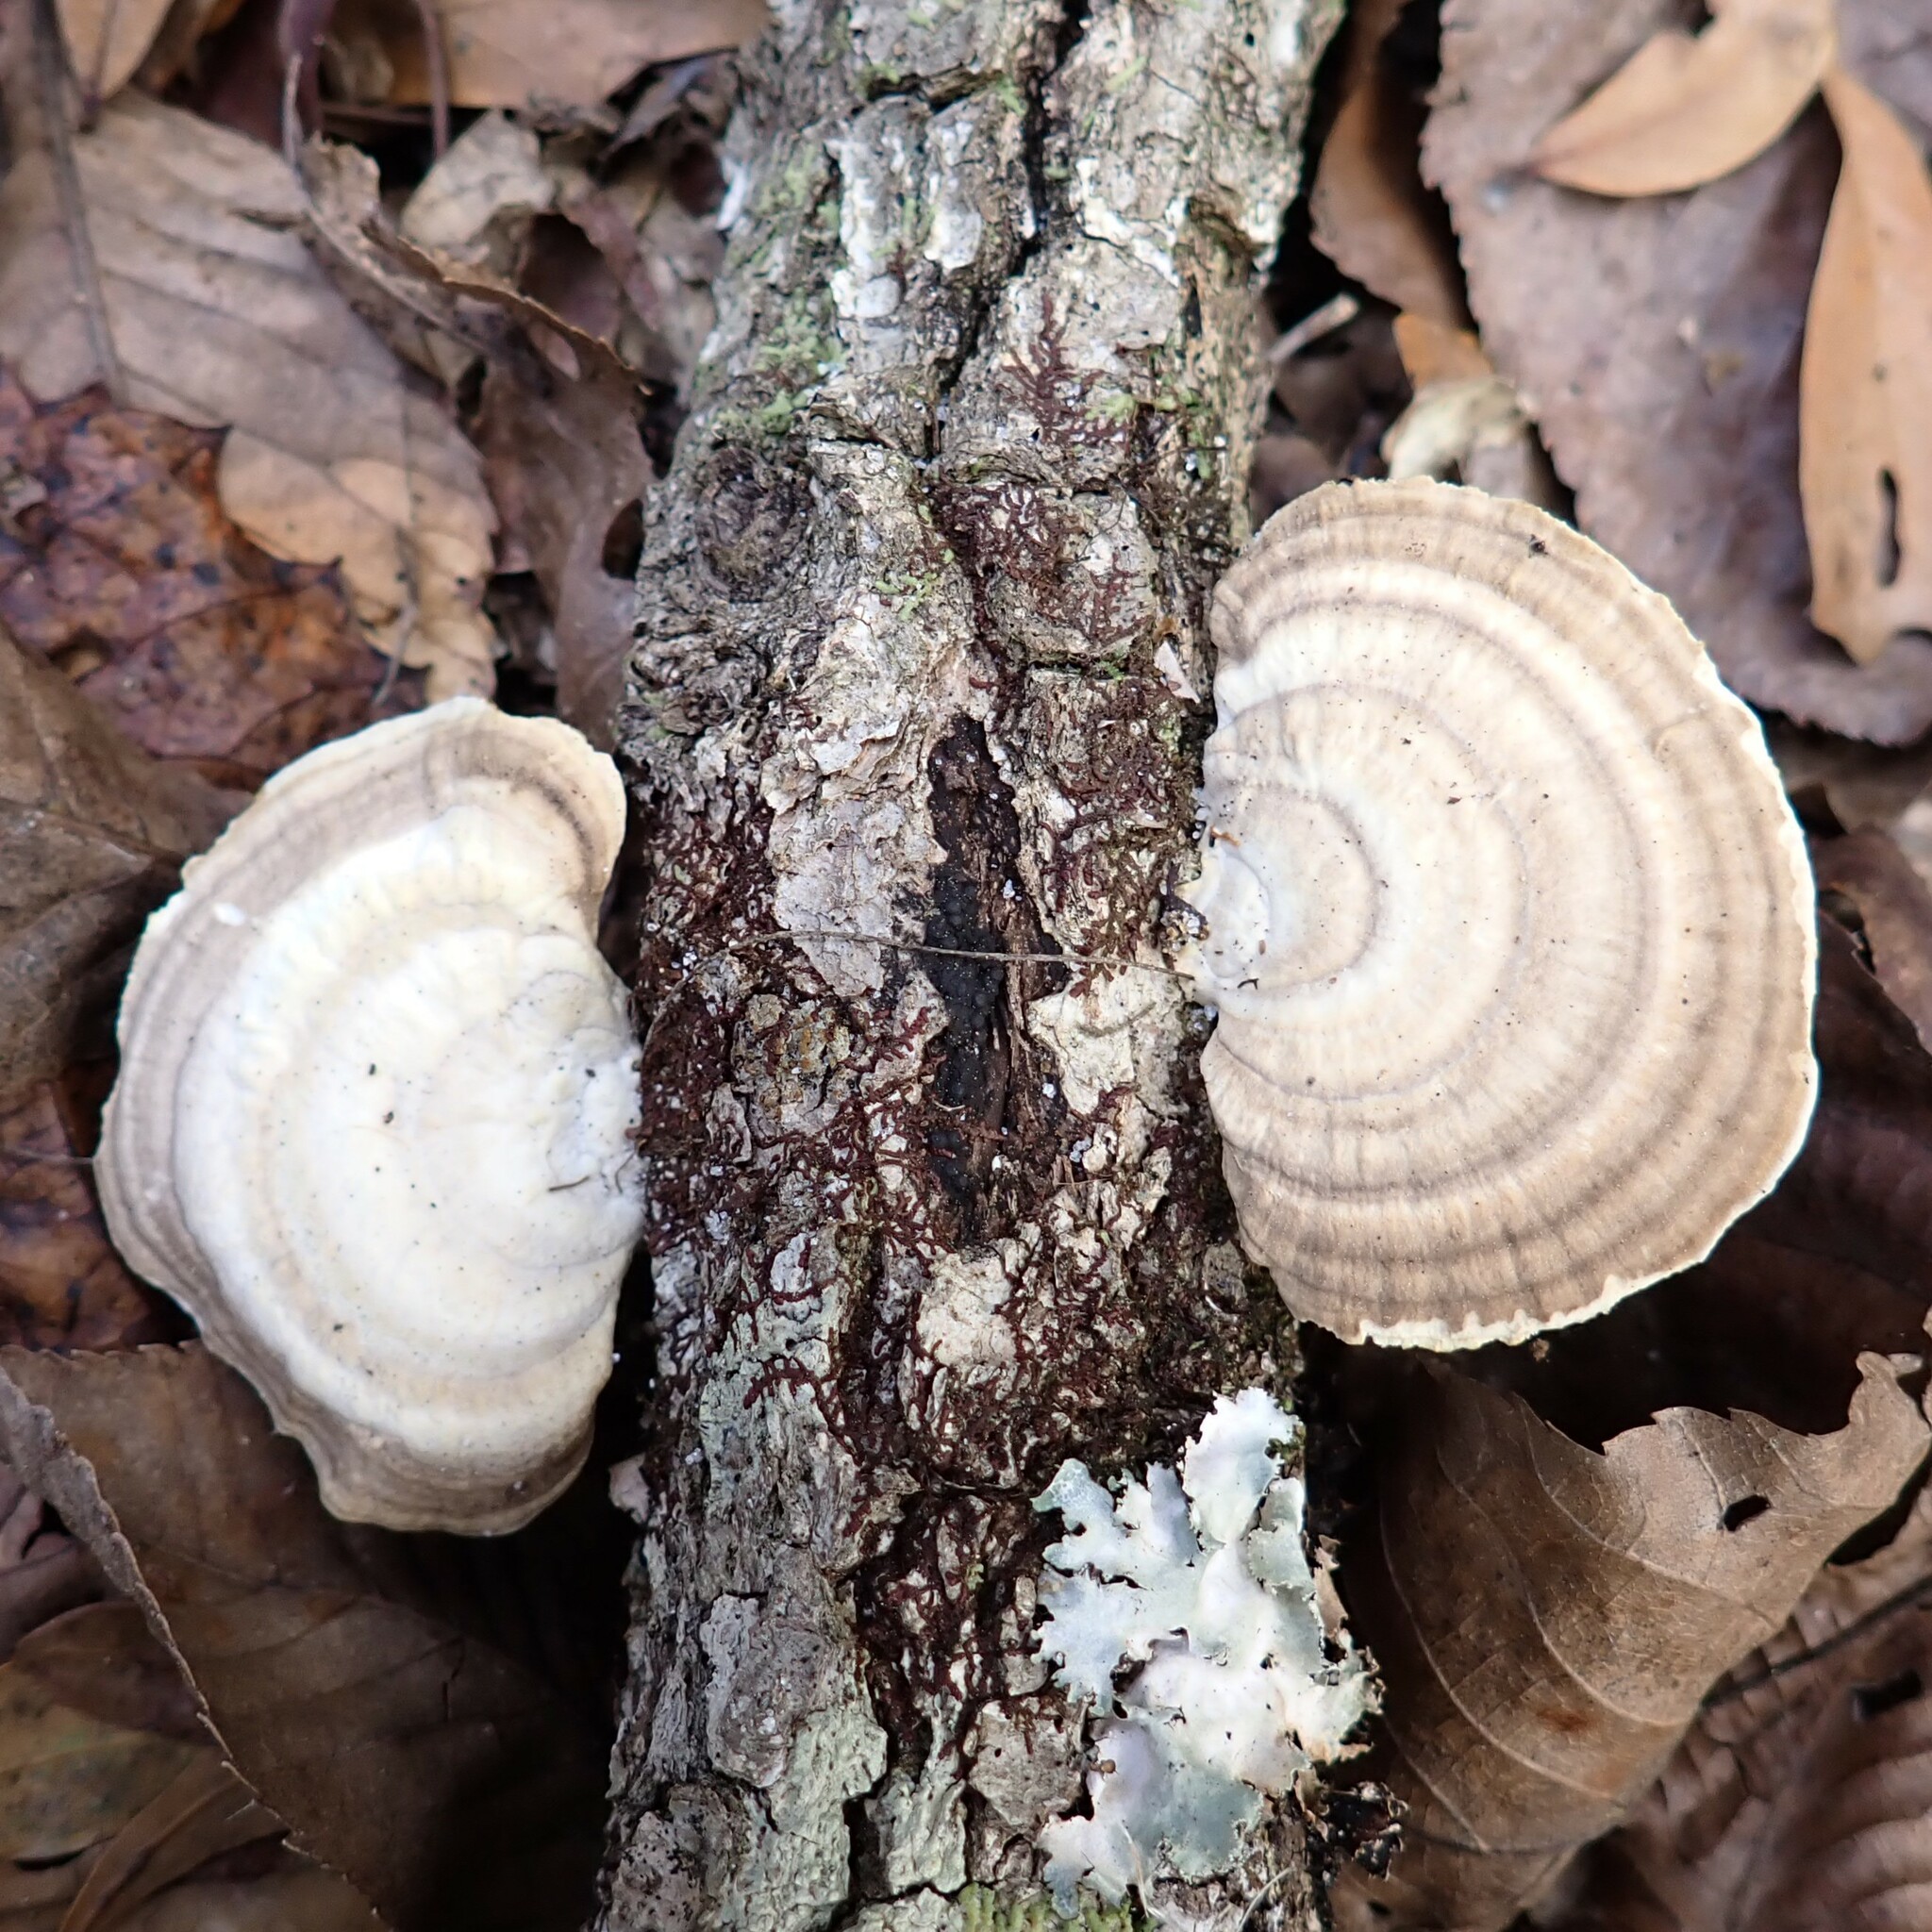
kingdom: Fungi
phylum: Basidiomycota
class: Agaricomycetes
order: Polyporales
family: Polyporaceae
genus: Trametes
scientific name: Trametes lactinea
